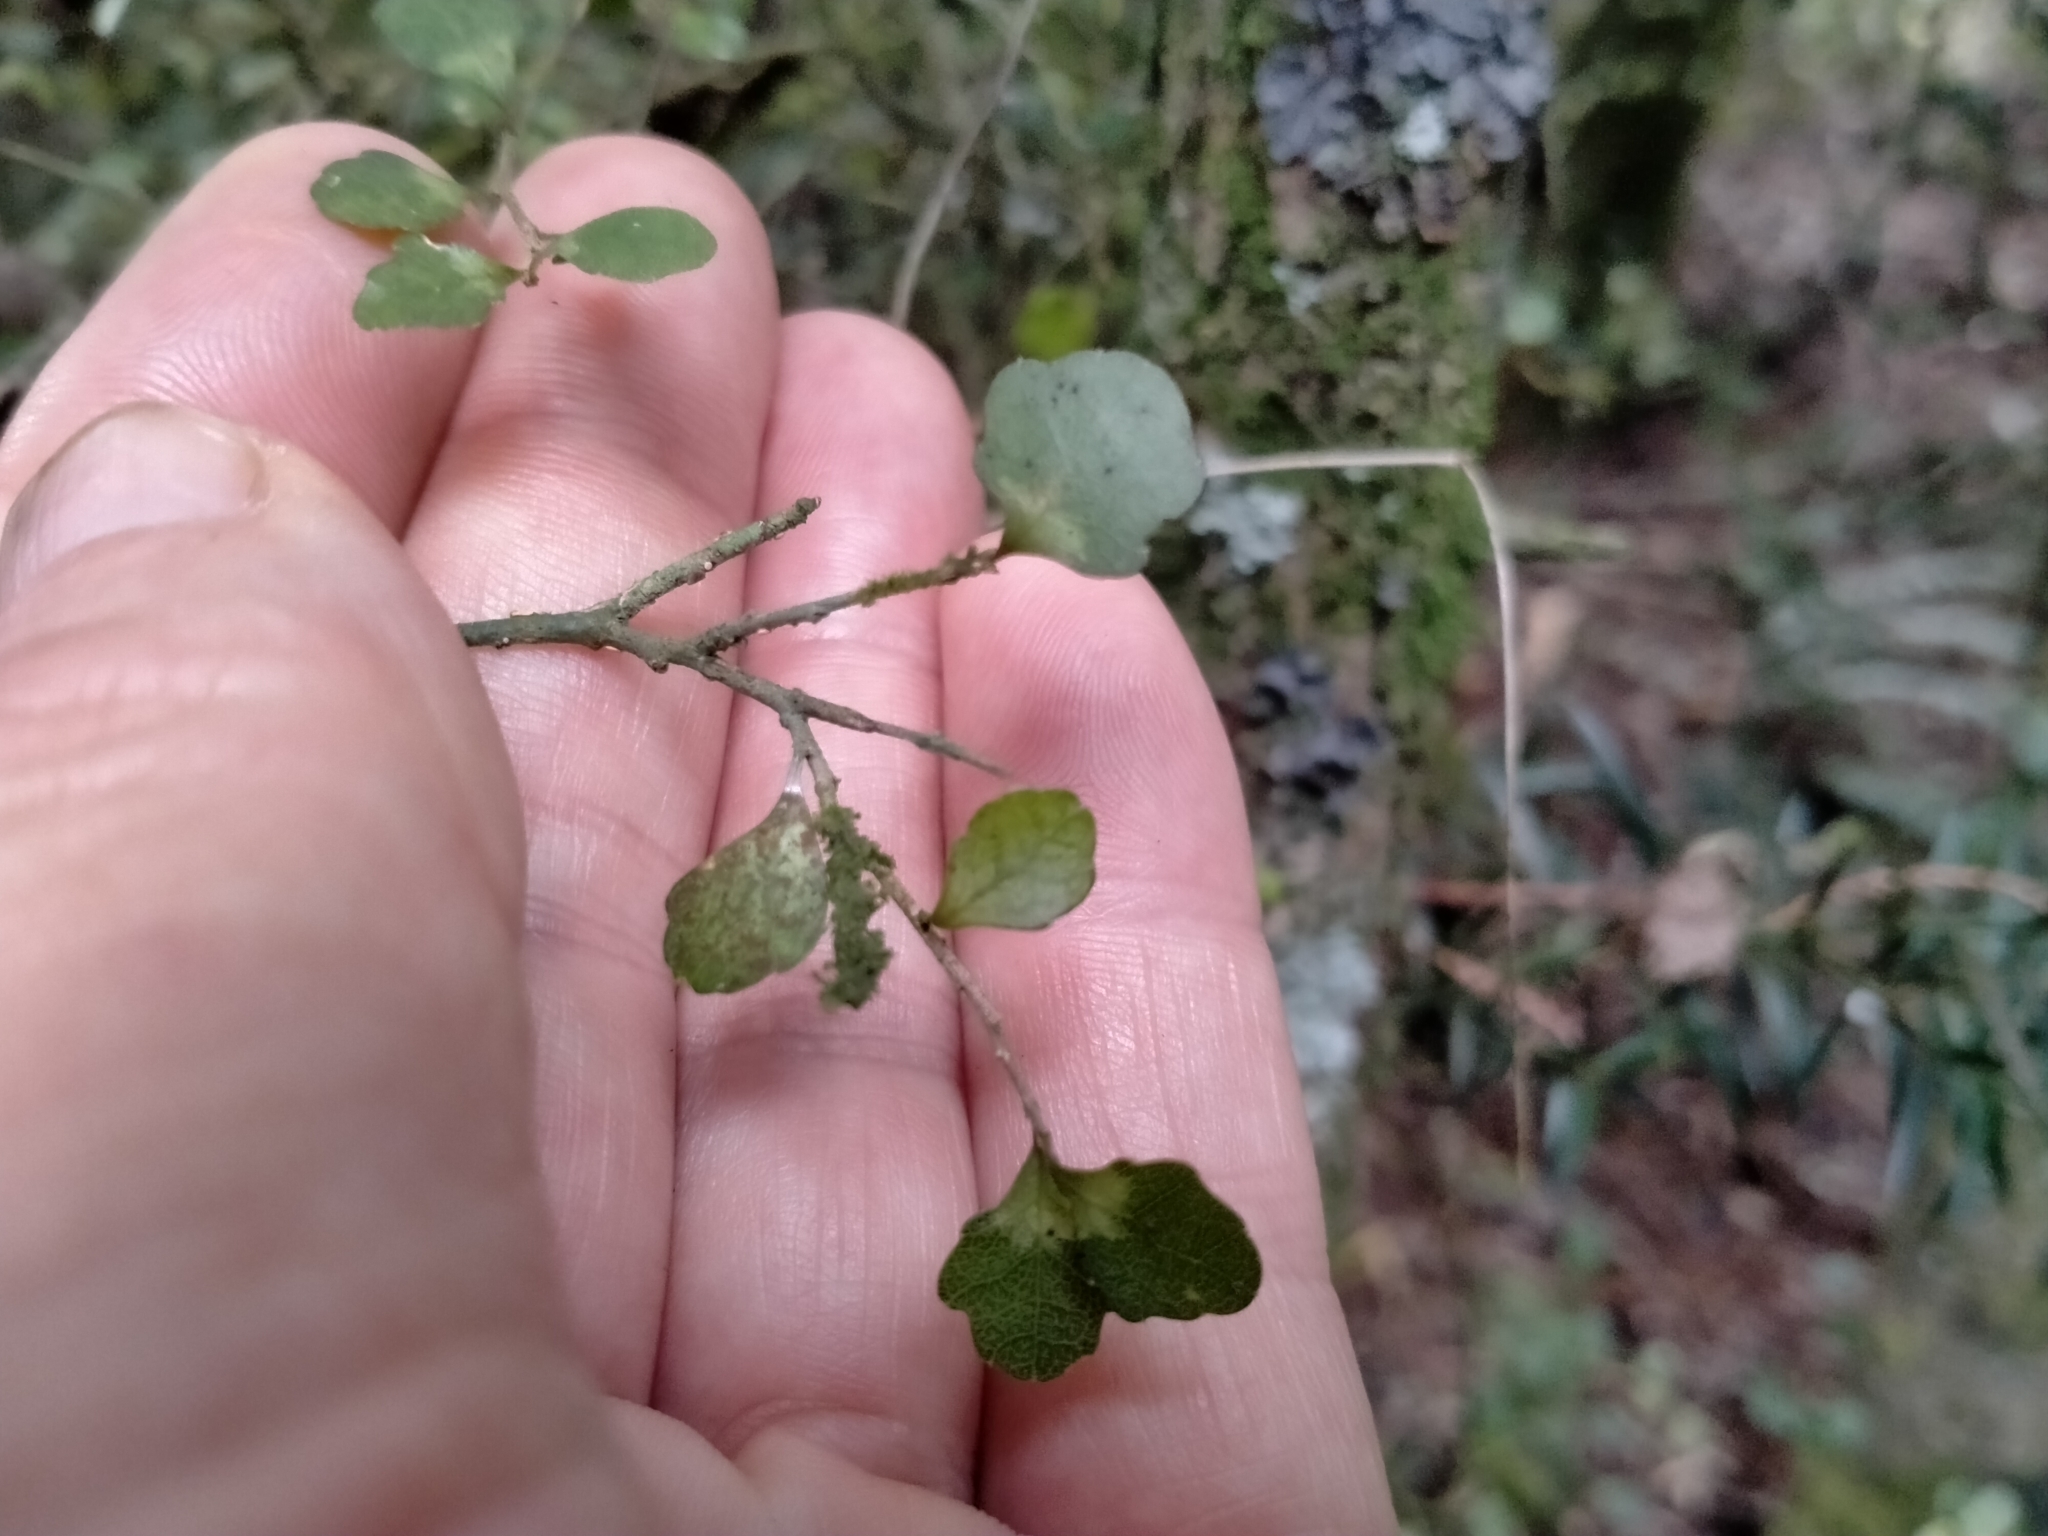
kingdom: Plantae
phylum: Tracheophyta
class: Magnoliopsida
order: Malpighiales
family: Violaceae
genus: Melicytus
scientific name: Melicytus micranthus
